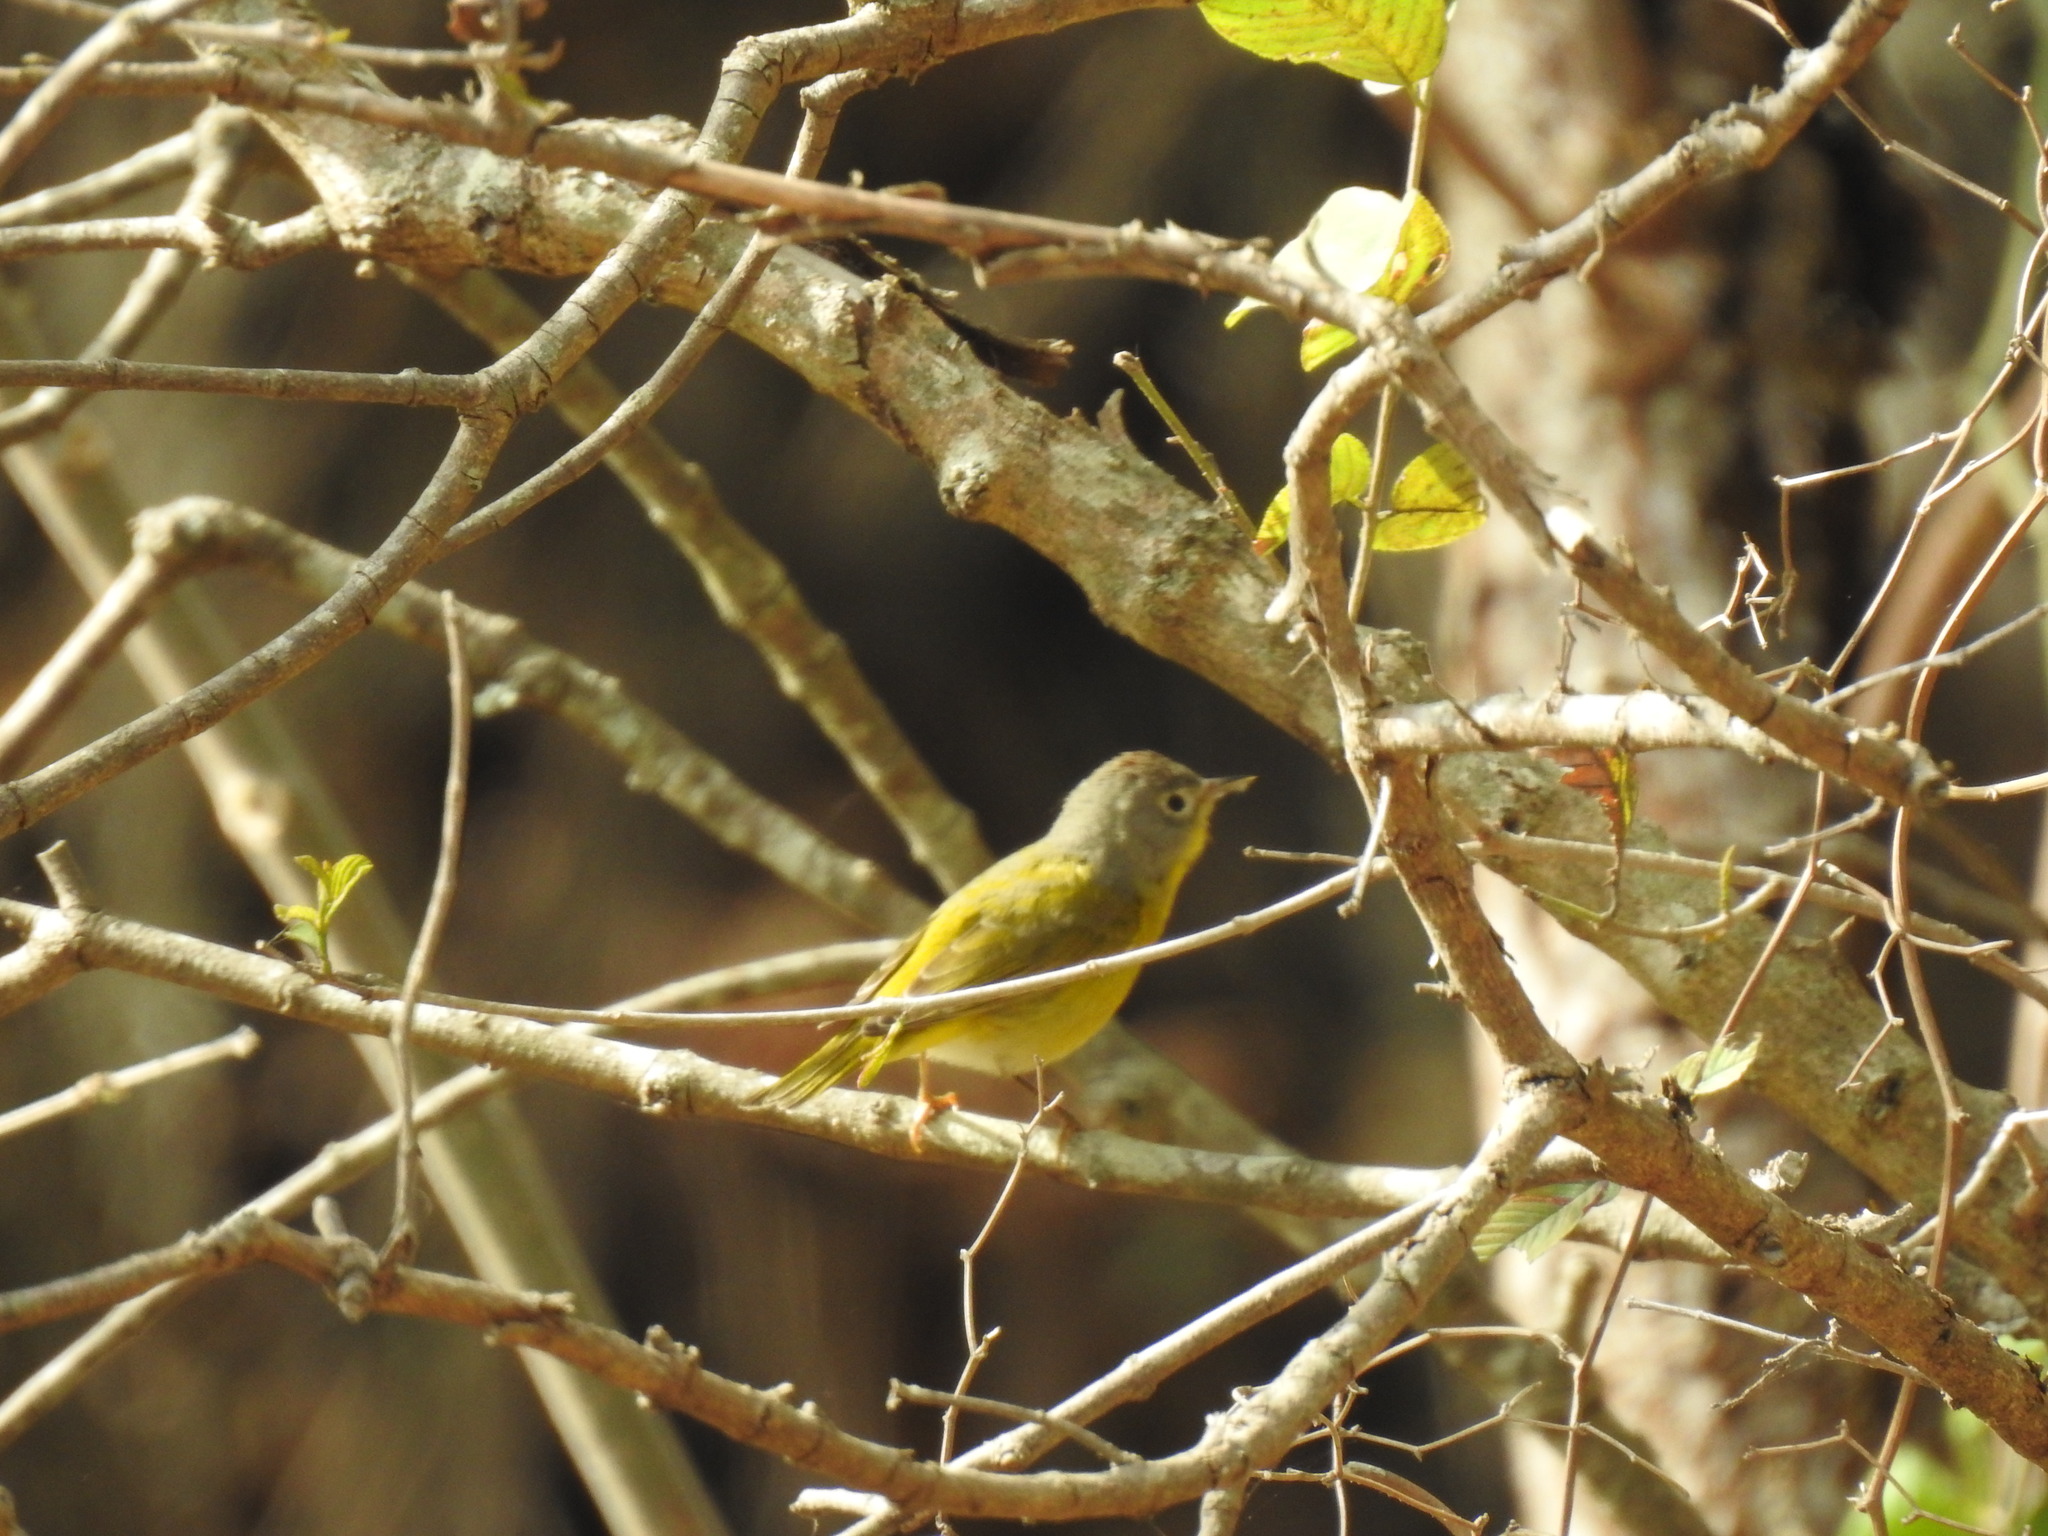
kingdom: Animalia
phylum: Chordata
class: Aves
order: Passeriformes
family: Parulidae
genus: Leiothlypis
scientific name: Leiothlypis ruficapilla
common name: Nashville warbler
